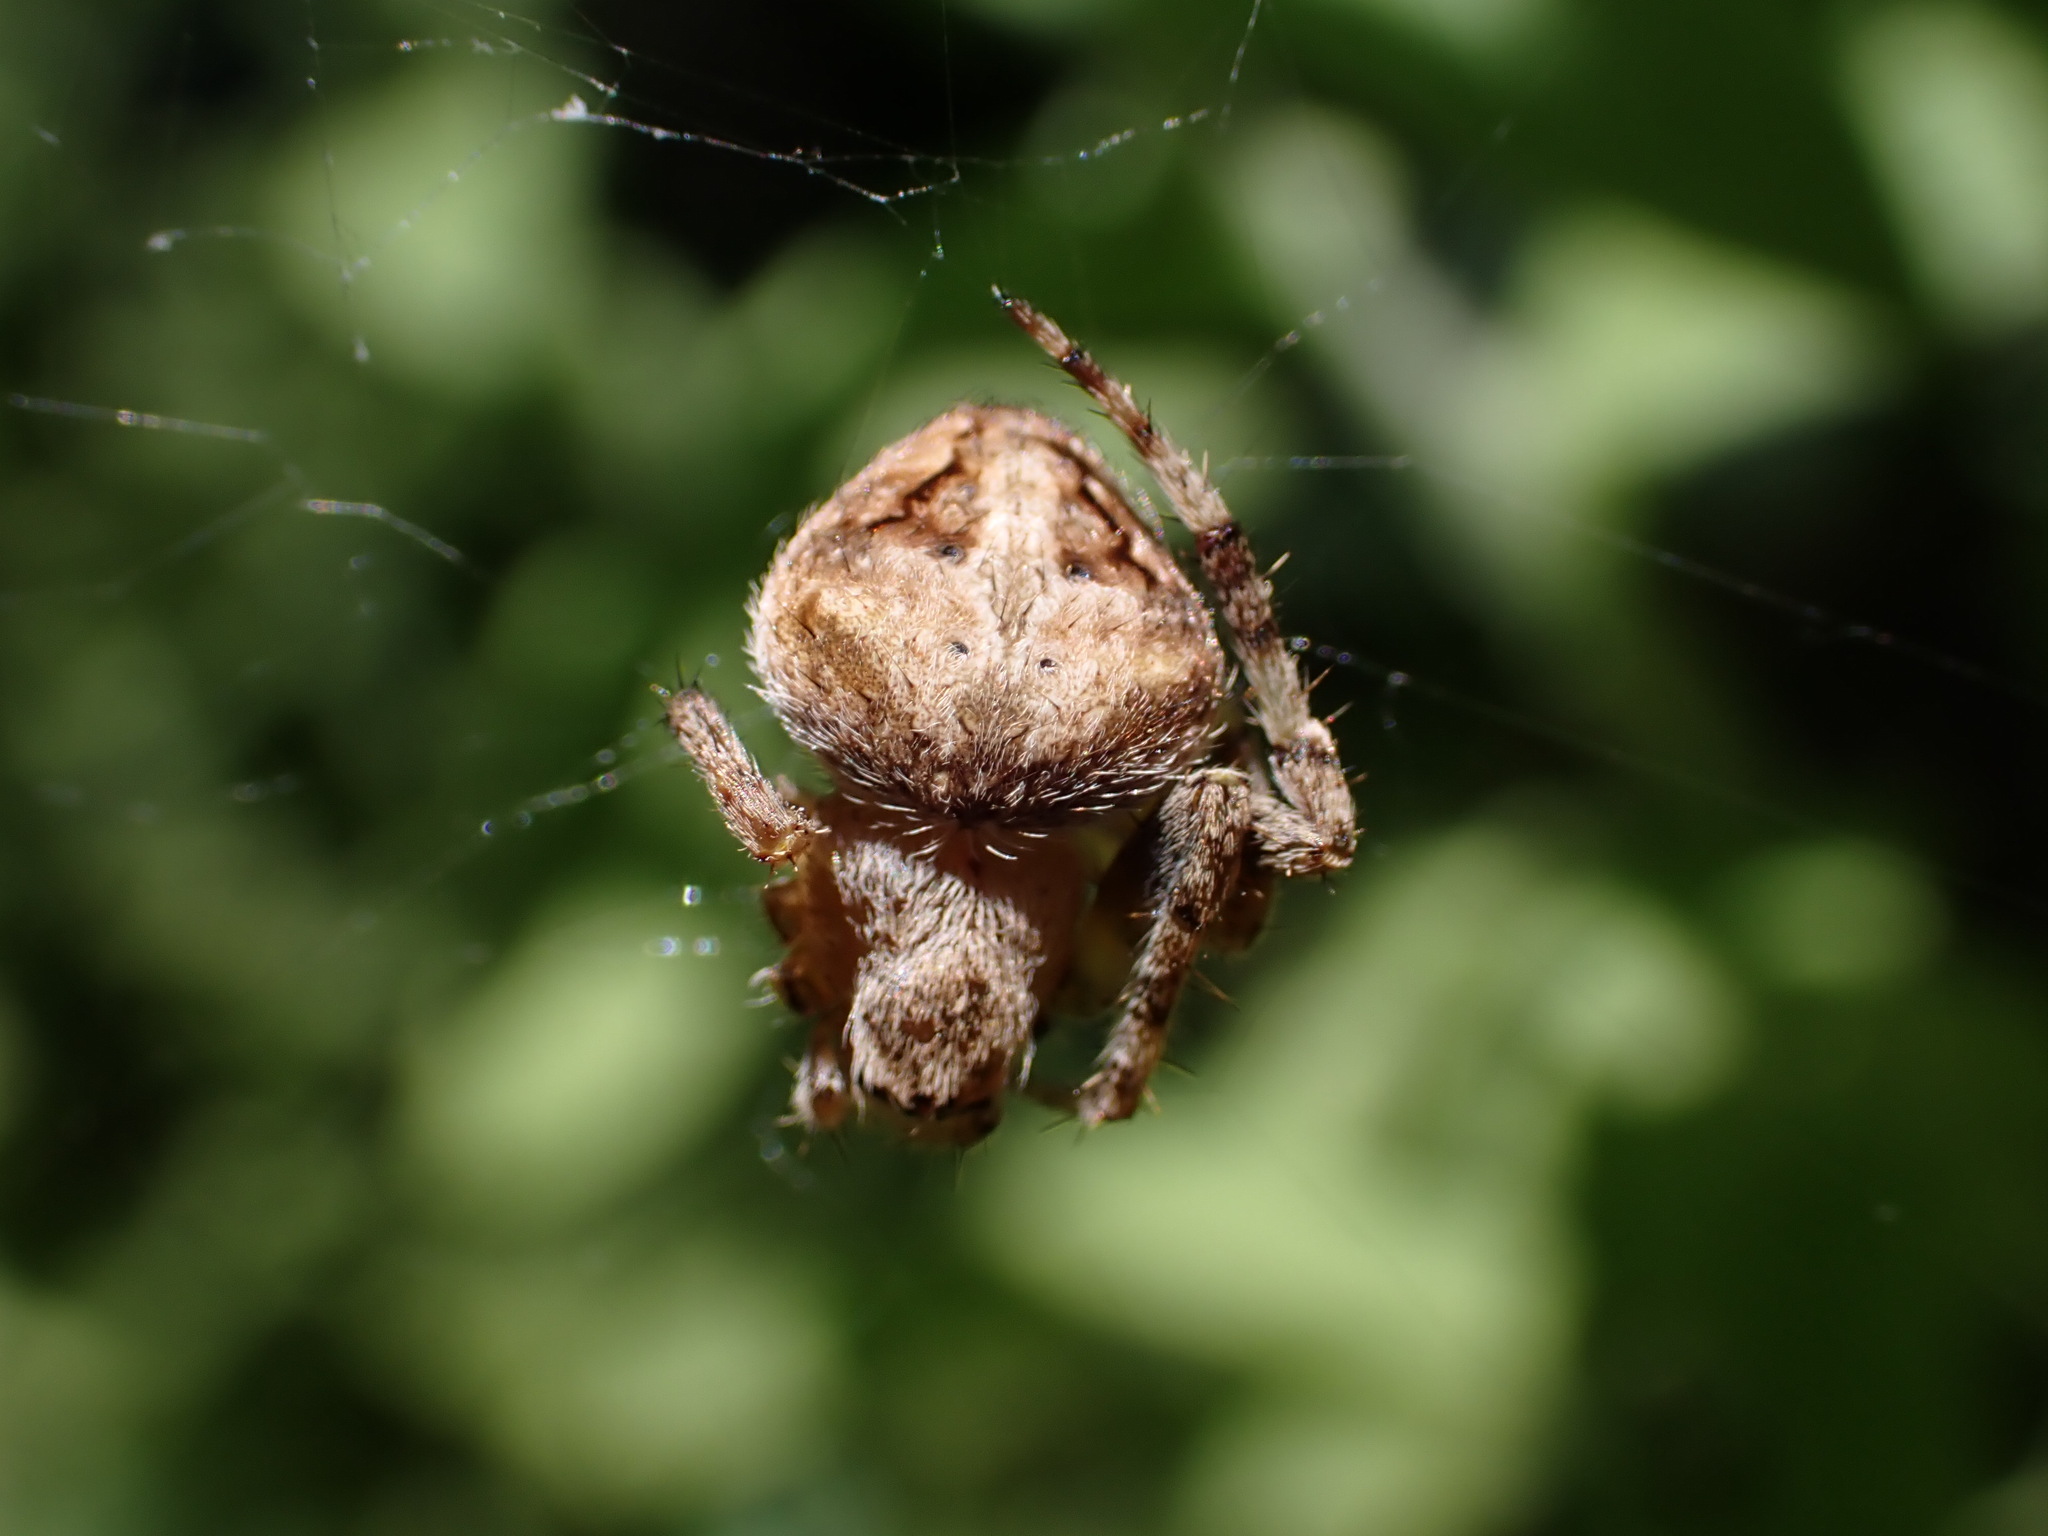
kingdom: Animalia
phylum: Arthropoda
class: Arachnida
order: Araneae
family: Araneidae
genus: Neoscona
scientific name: Neoscona subfusca
